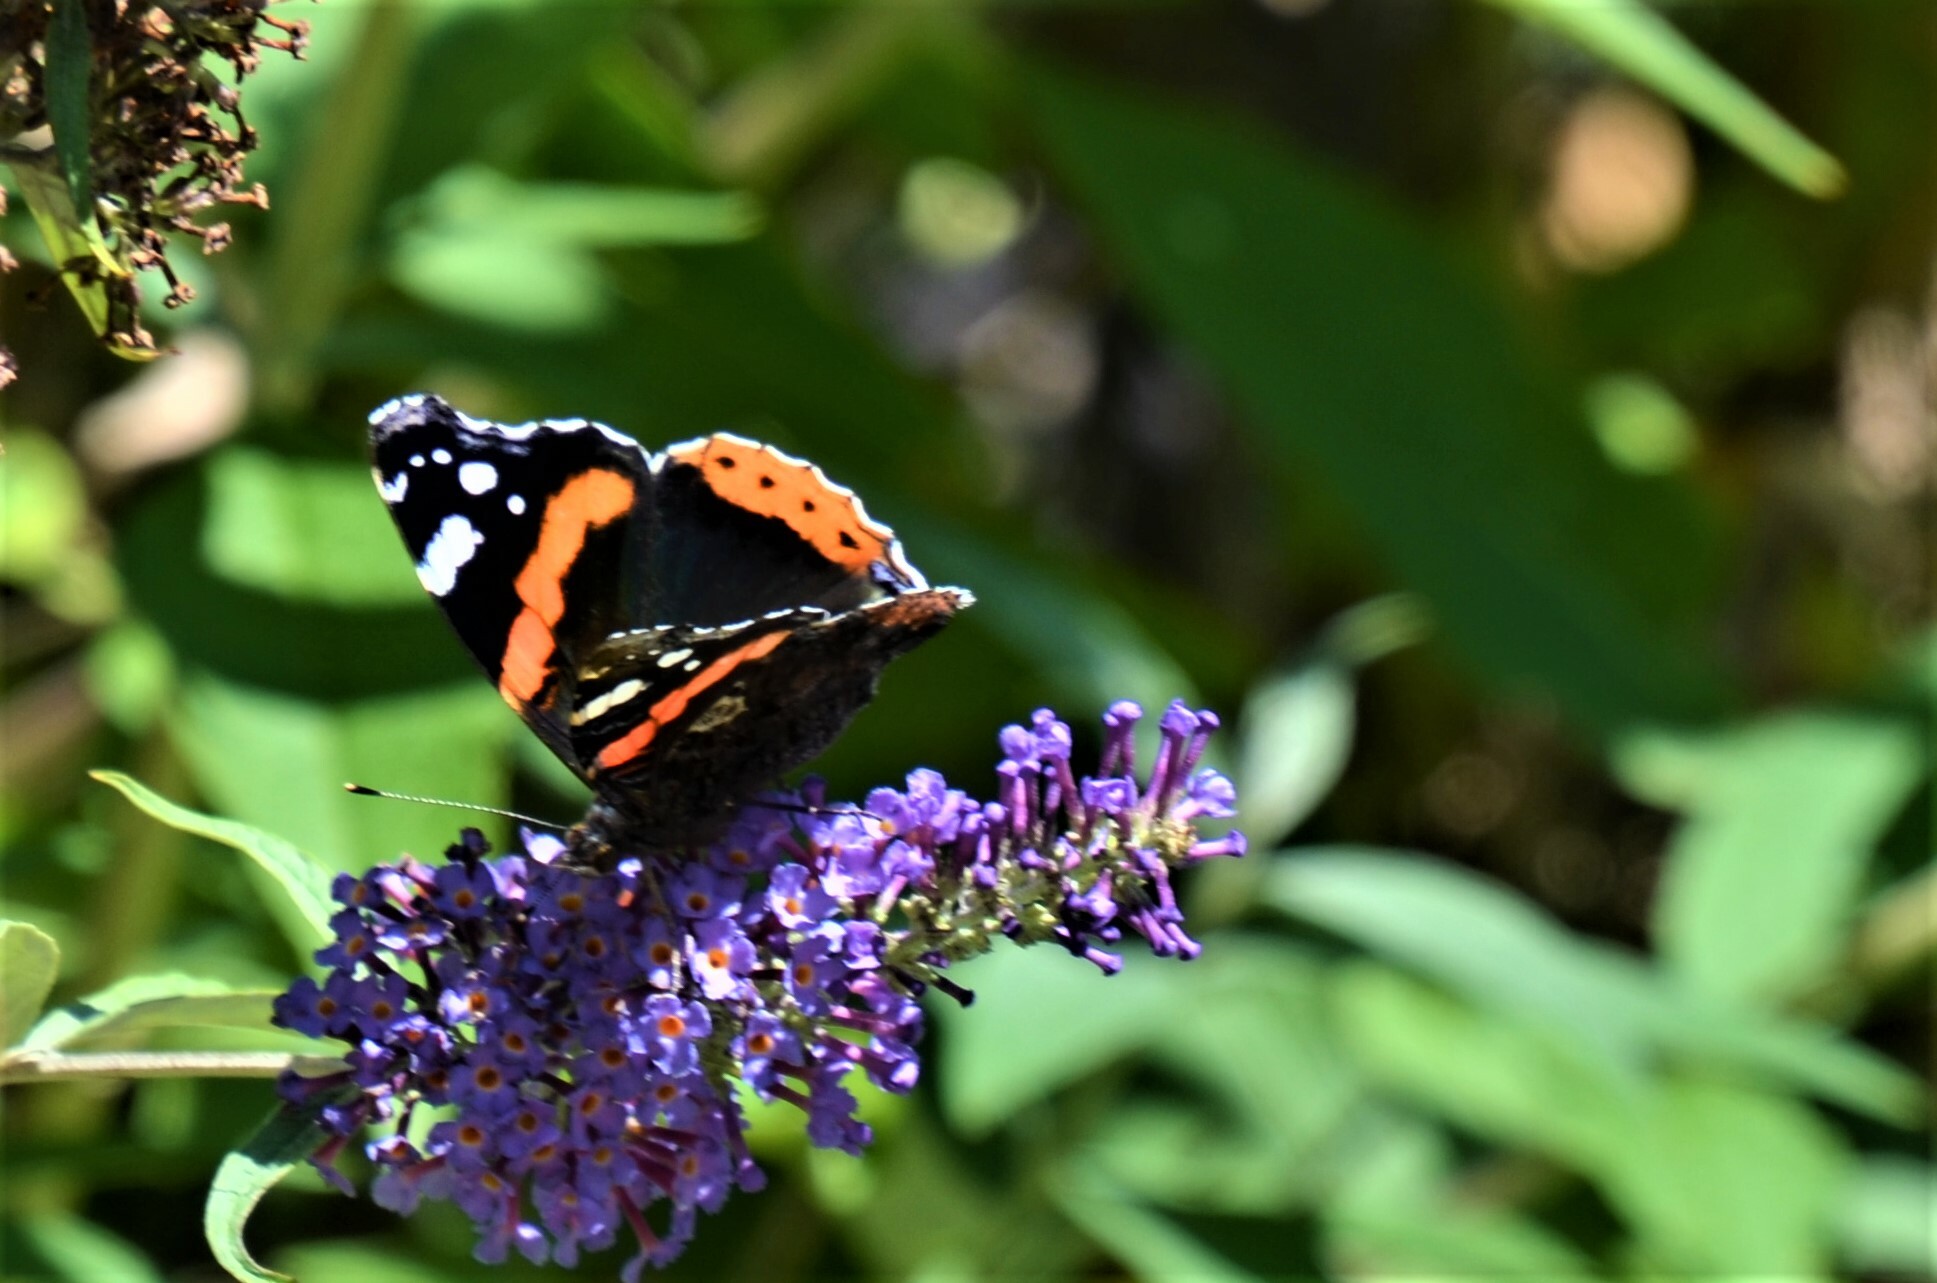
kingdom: Animalia
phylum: Arthropoda
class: Insecta
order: Lepidoptera
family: Nymphalidae
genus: Vanessa
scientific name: Vanessa atalanta
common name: Red admiral
